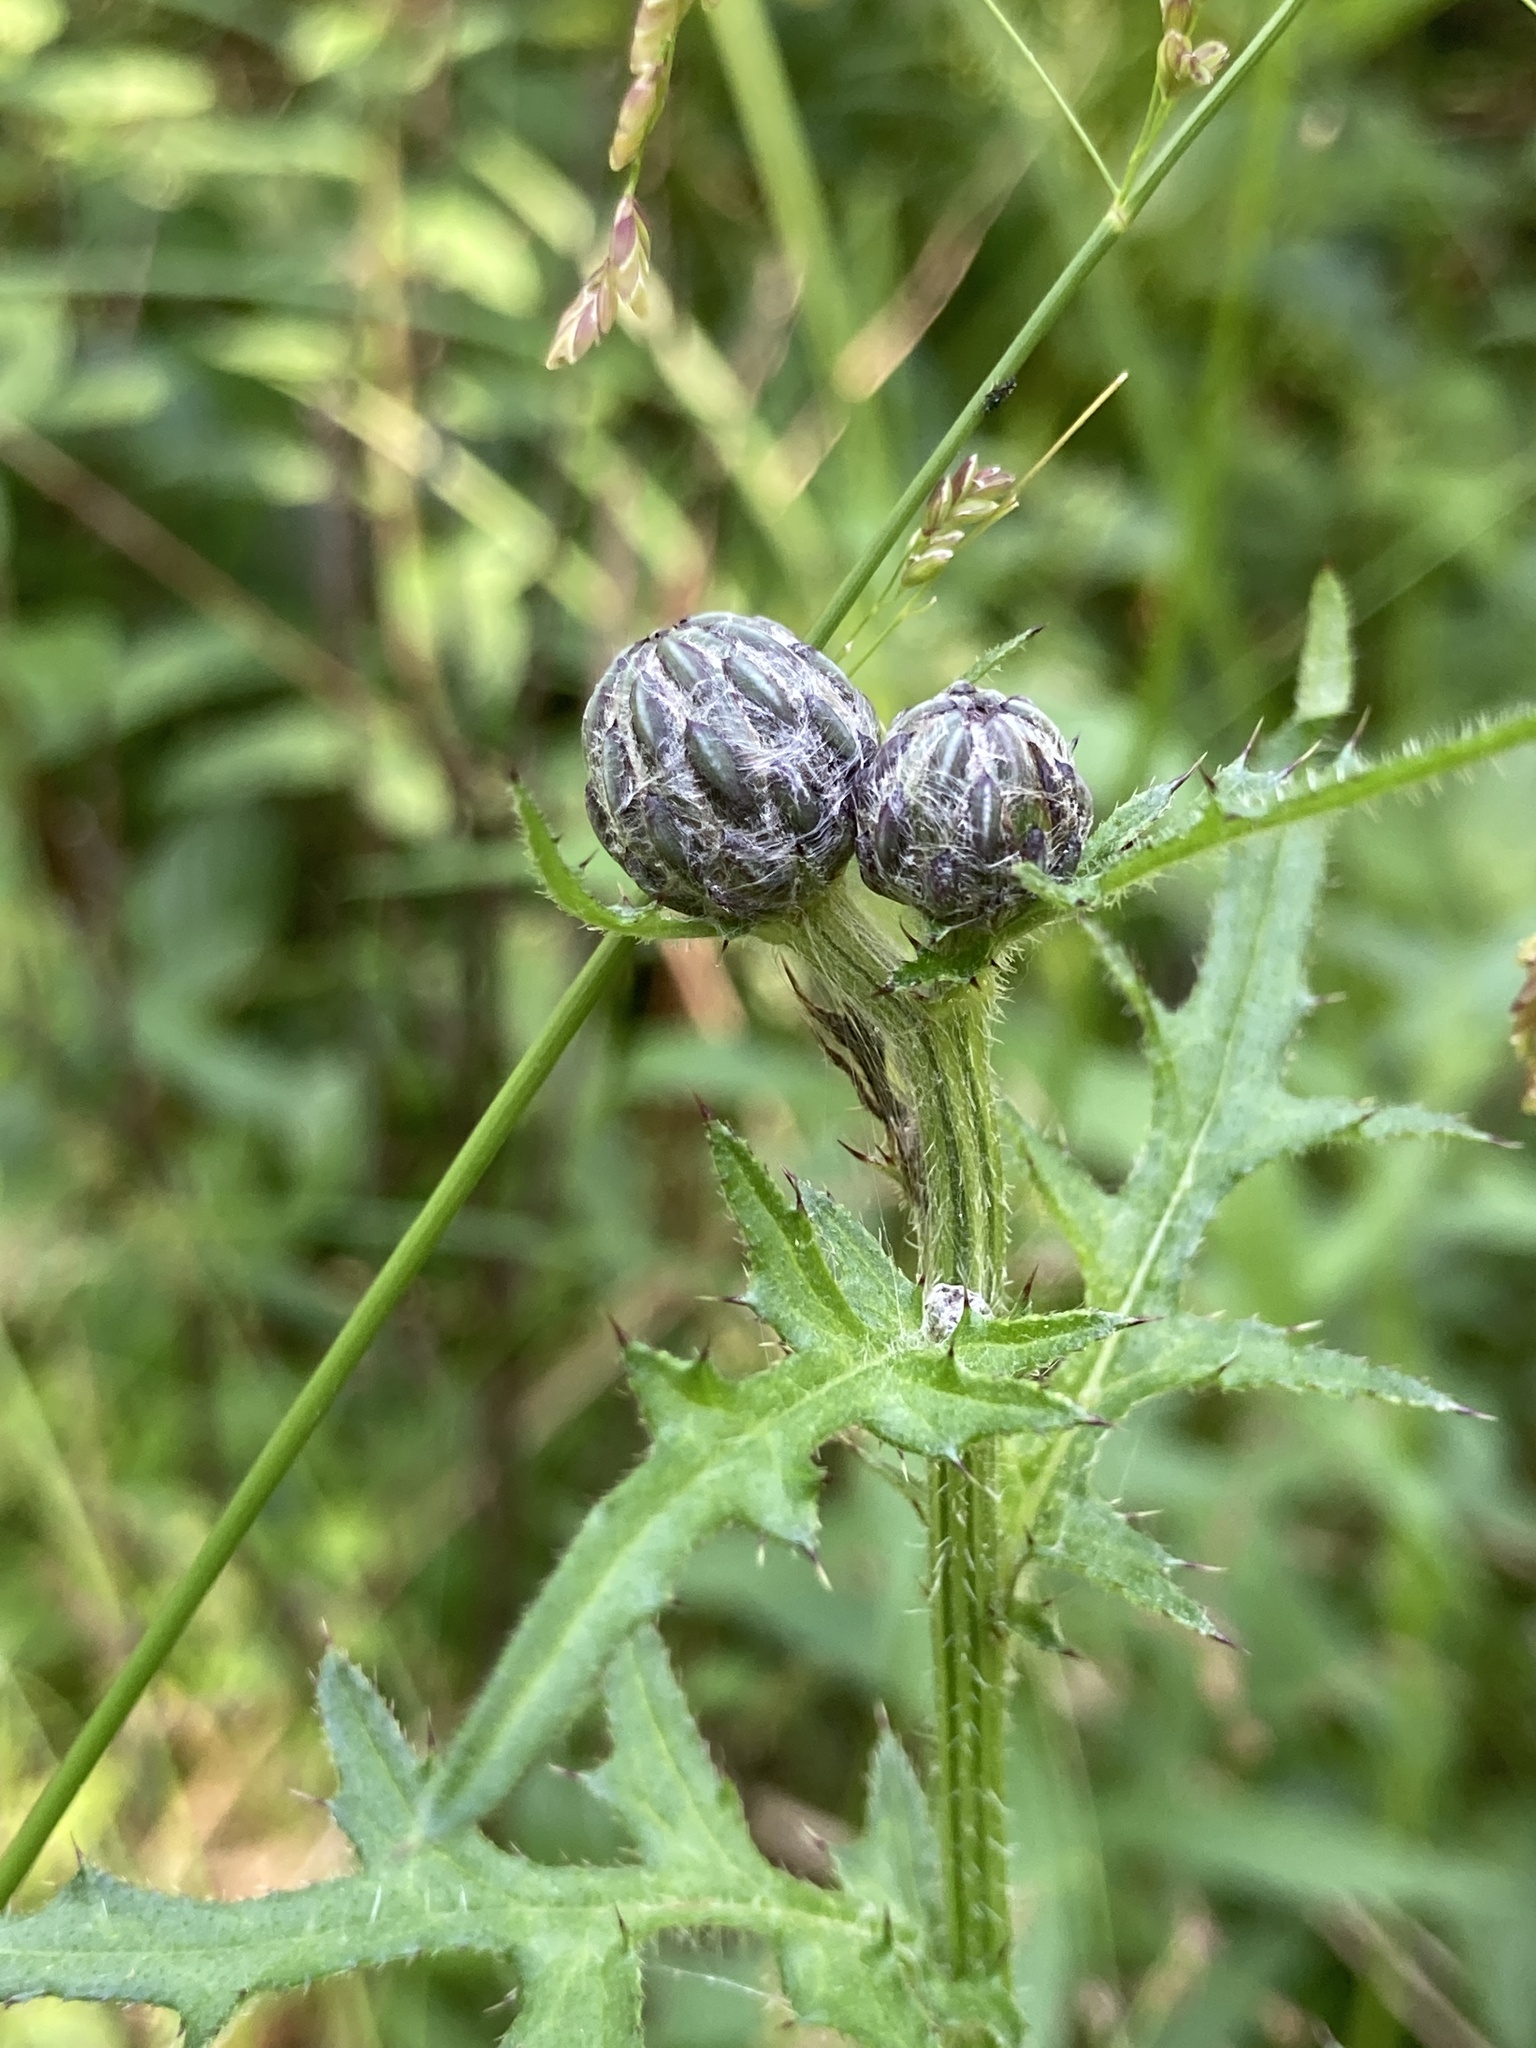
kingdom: Plantae
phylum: Tracheophyta
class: Magnoliopsida
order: Asterales
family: Asteraceae
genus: Cirsium
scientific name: Cirsium muticum
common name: Dunce-nettle
